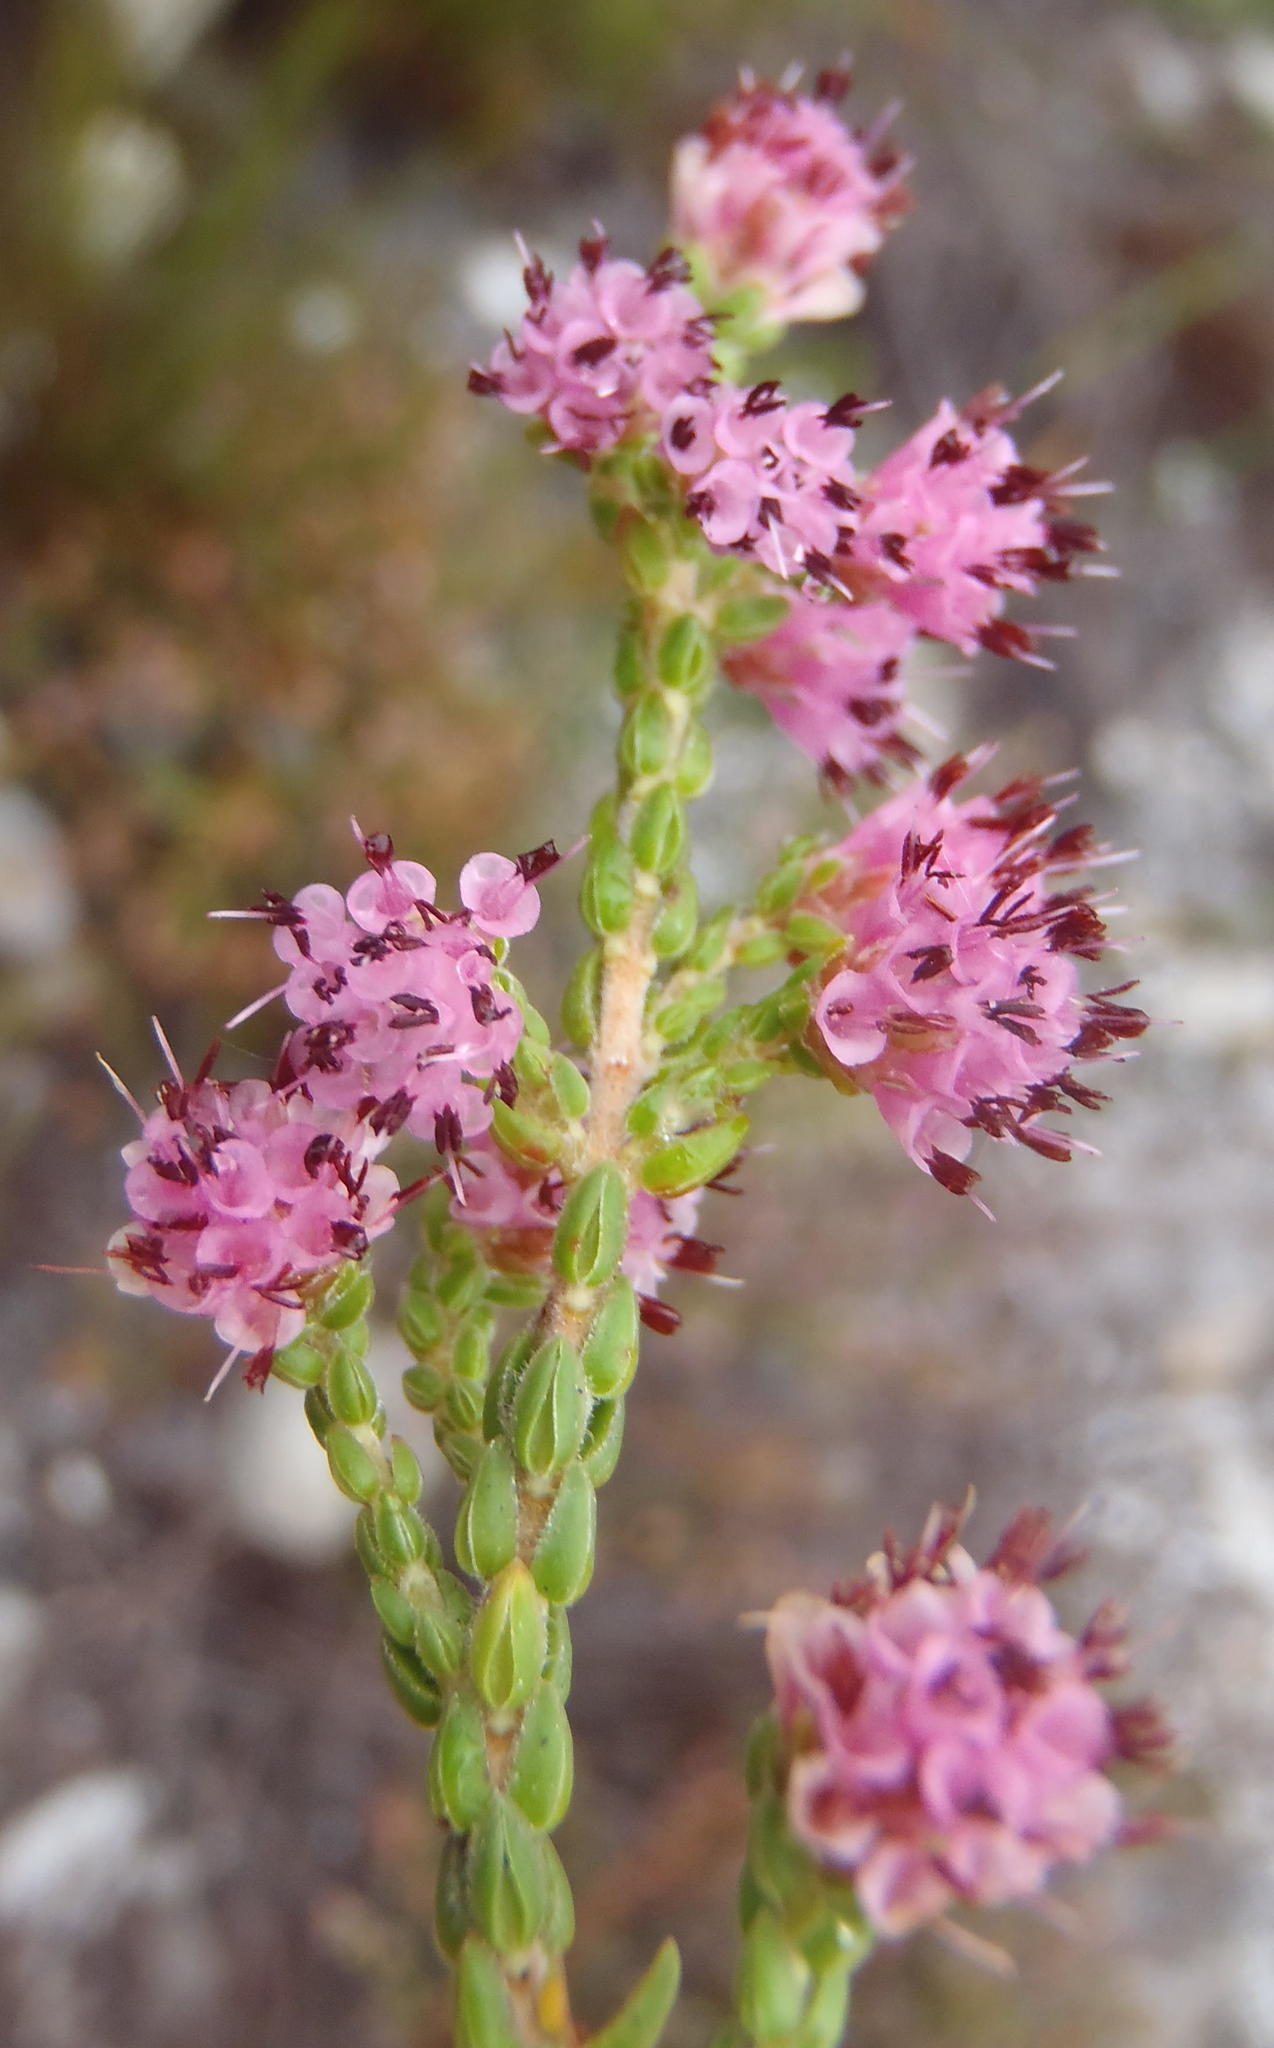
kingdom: Plantae
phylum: Tracheophyta
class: Magnoliopsida
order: Ericales
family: Ericaceae
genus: Erica
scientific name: Erica labialis
